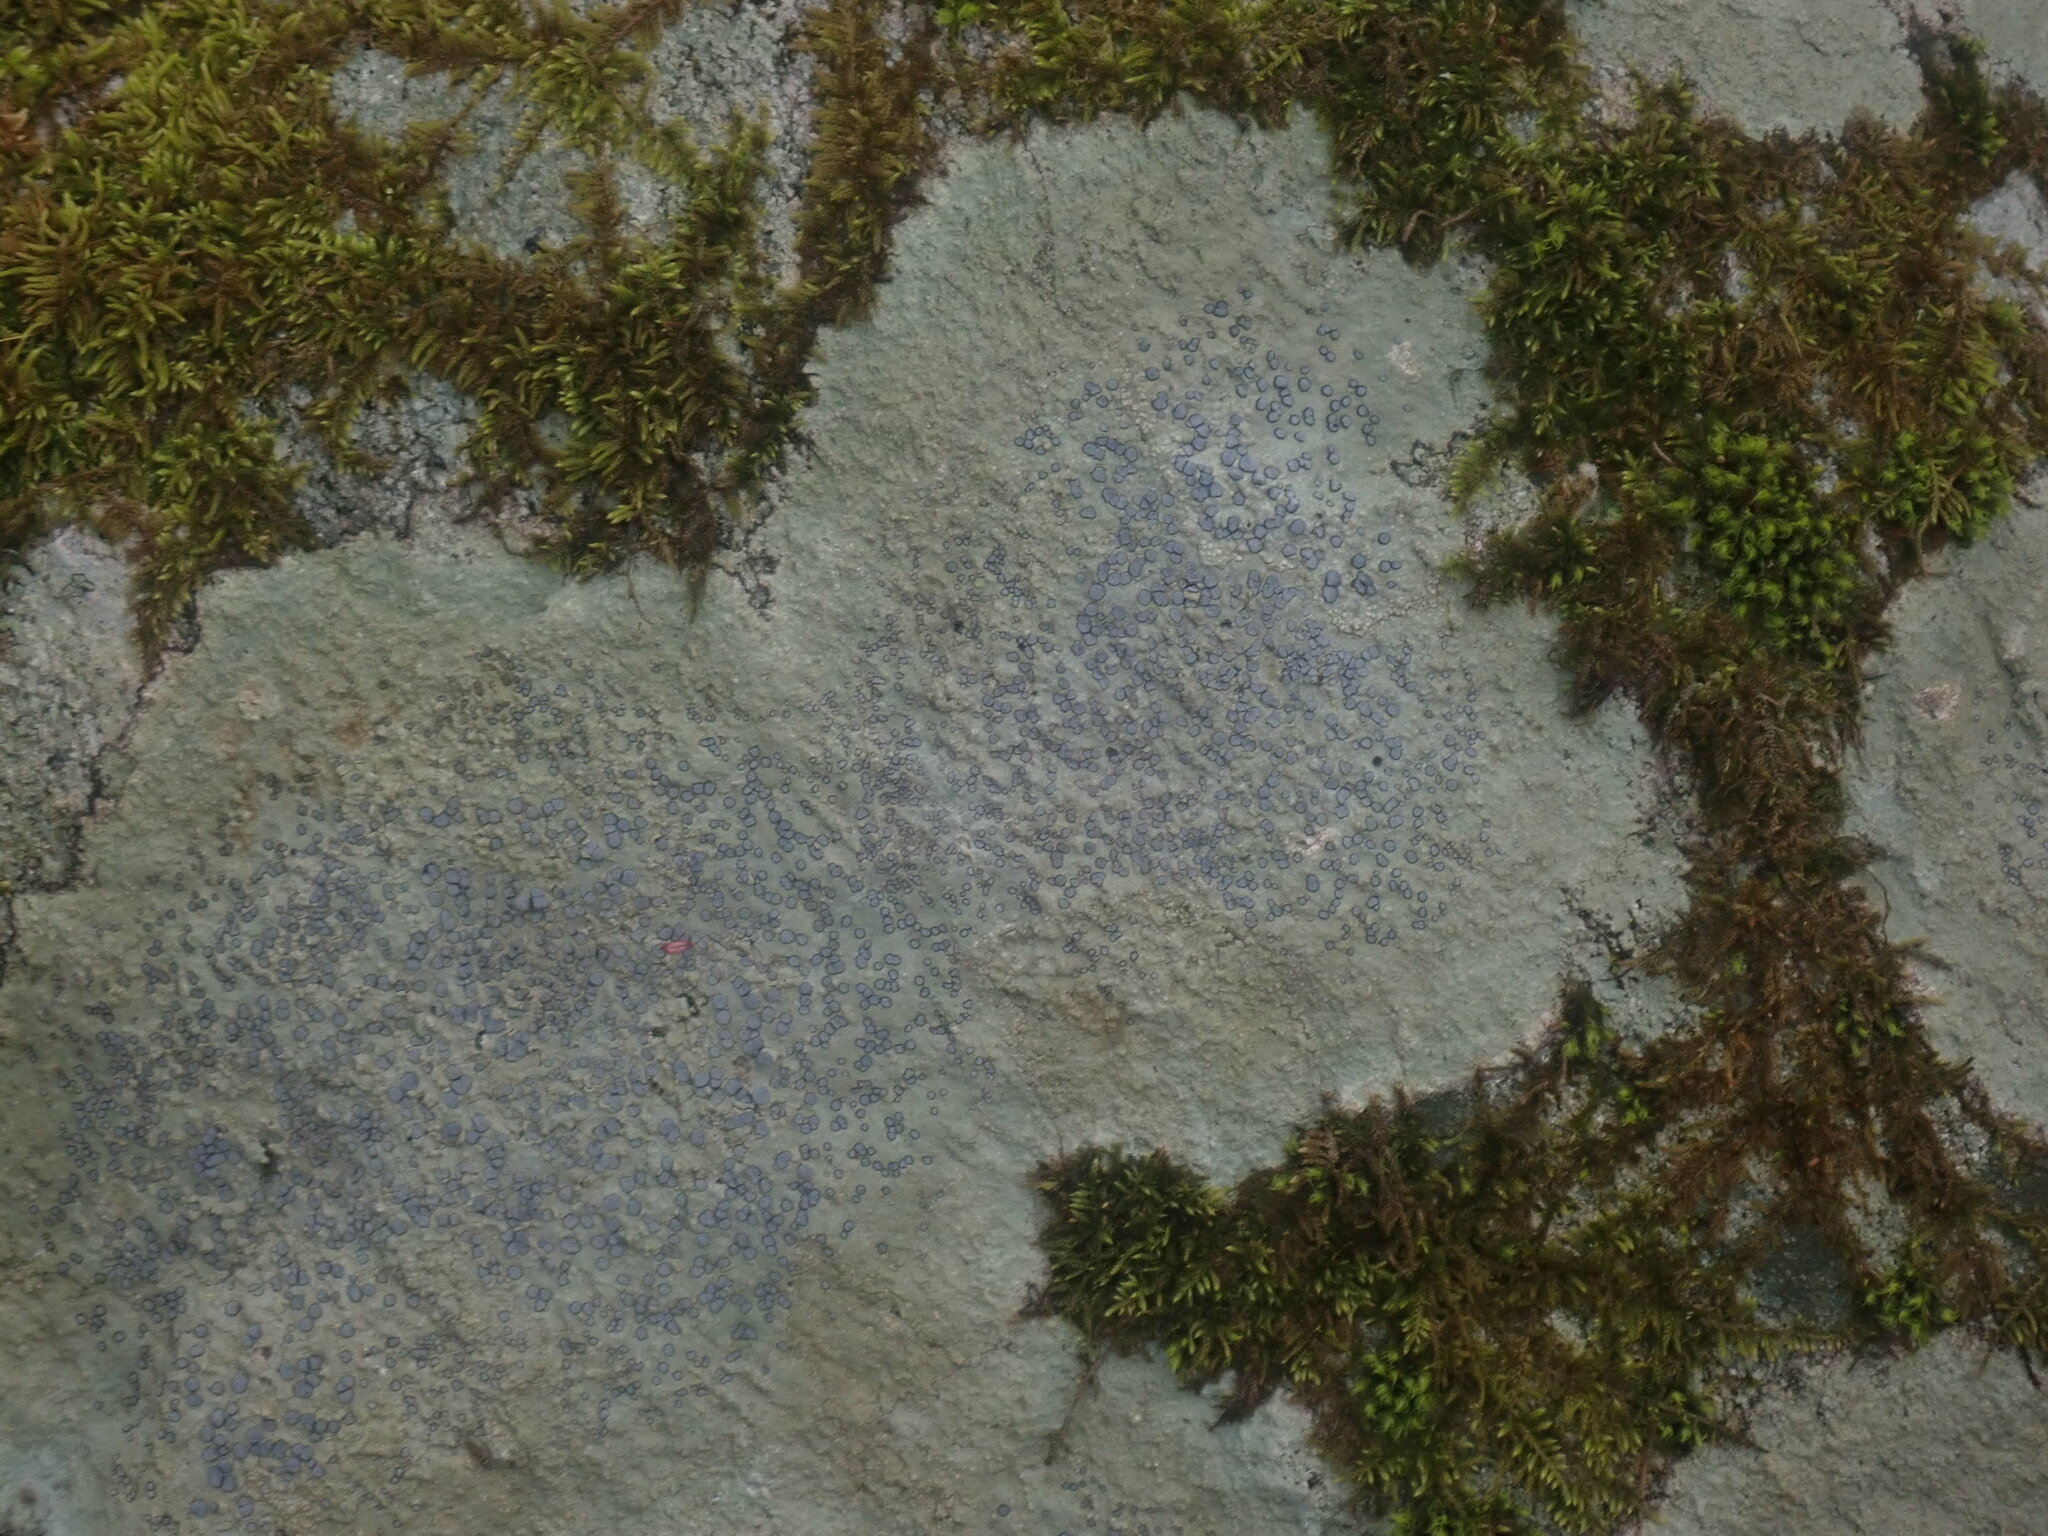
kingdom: Fungi
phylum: Ascomycota
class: Lecanoromycetes
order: Lecideales
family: Lecideaceae
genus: Porpidia
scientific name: Porpidia albocaerulescens
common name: Smokey-eyed boulder lichen
